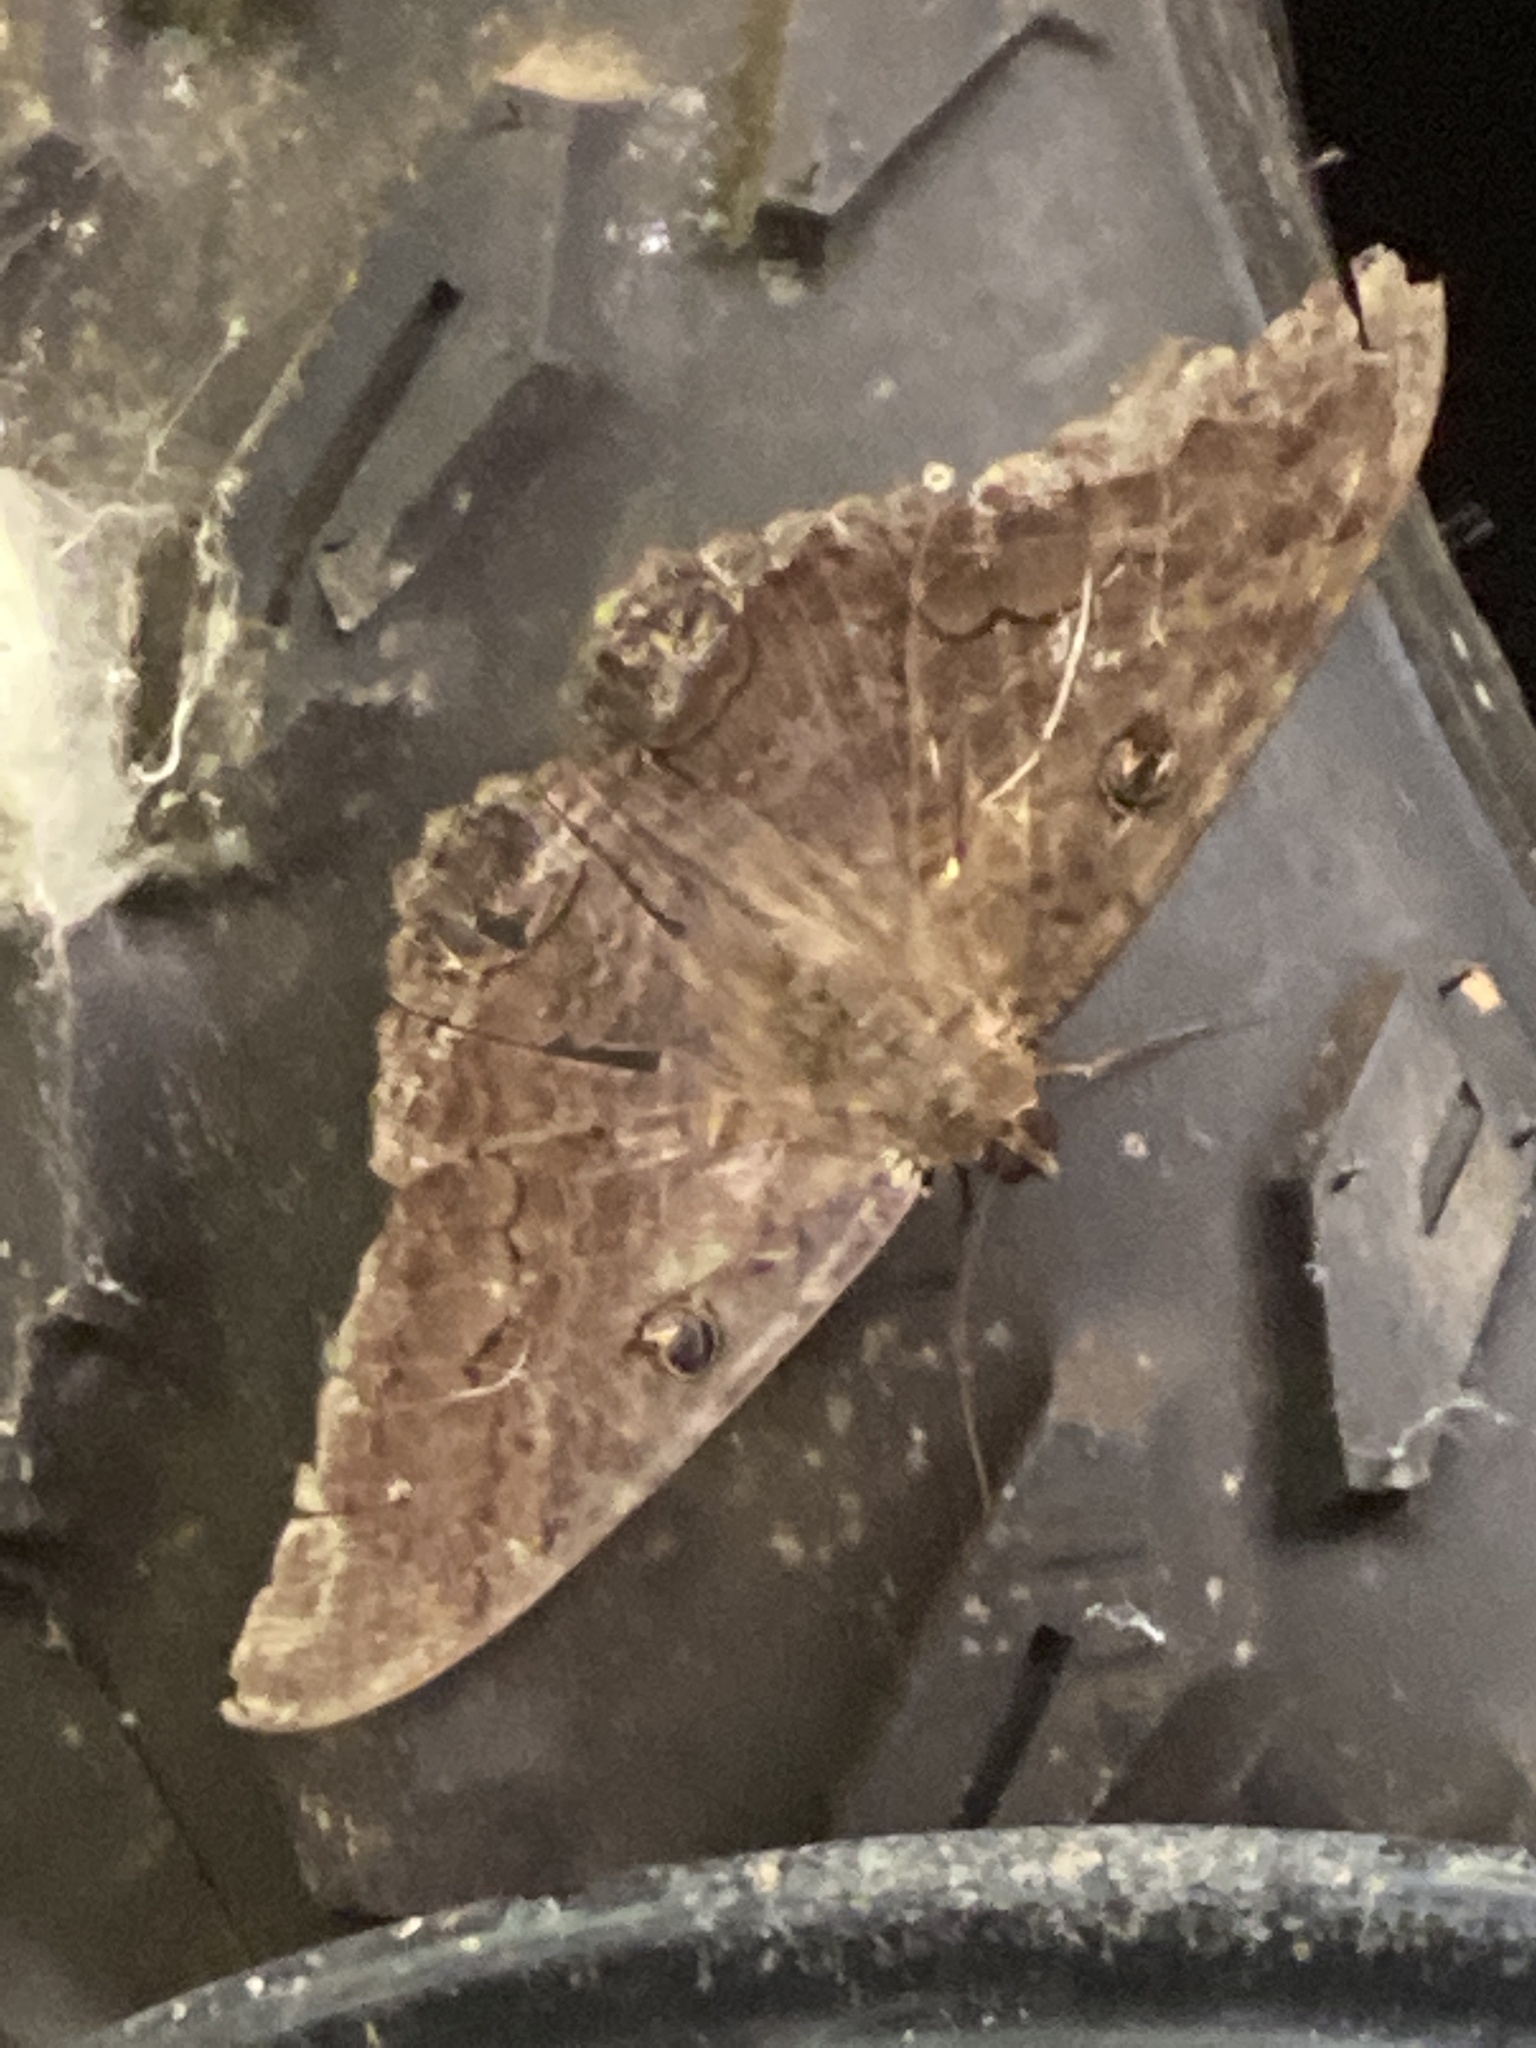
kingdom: Animalia
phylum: Arthropoda
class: Insecta
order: Lepidoptera
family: Erebidae
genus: Ascalapha
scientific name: Ascalapha odorata
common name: Black witch
